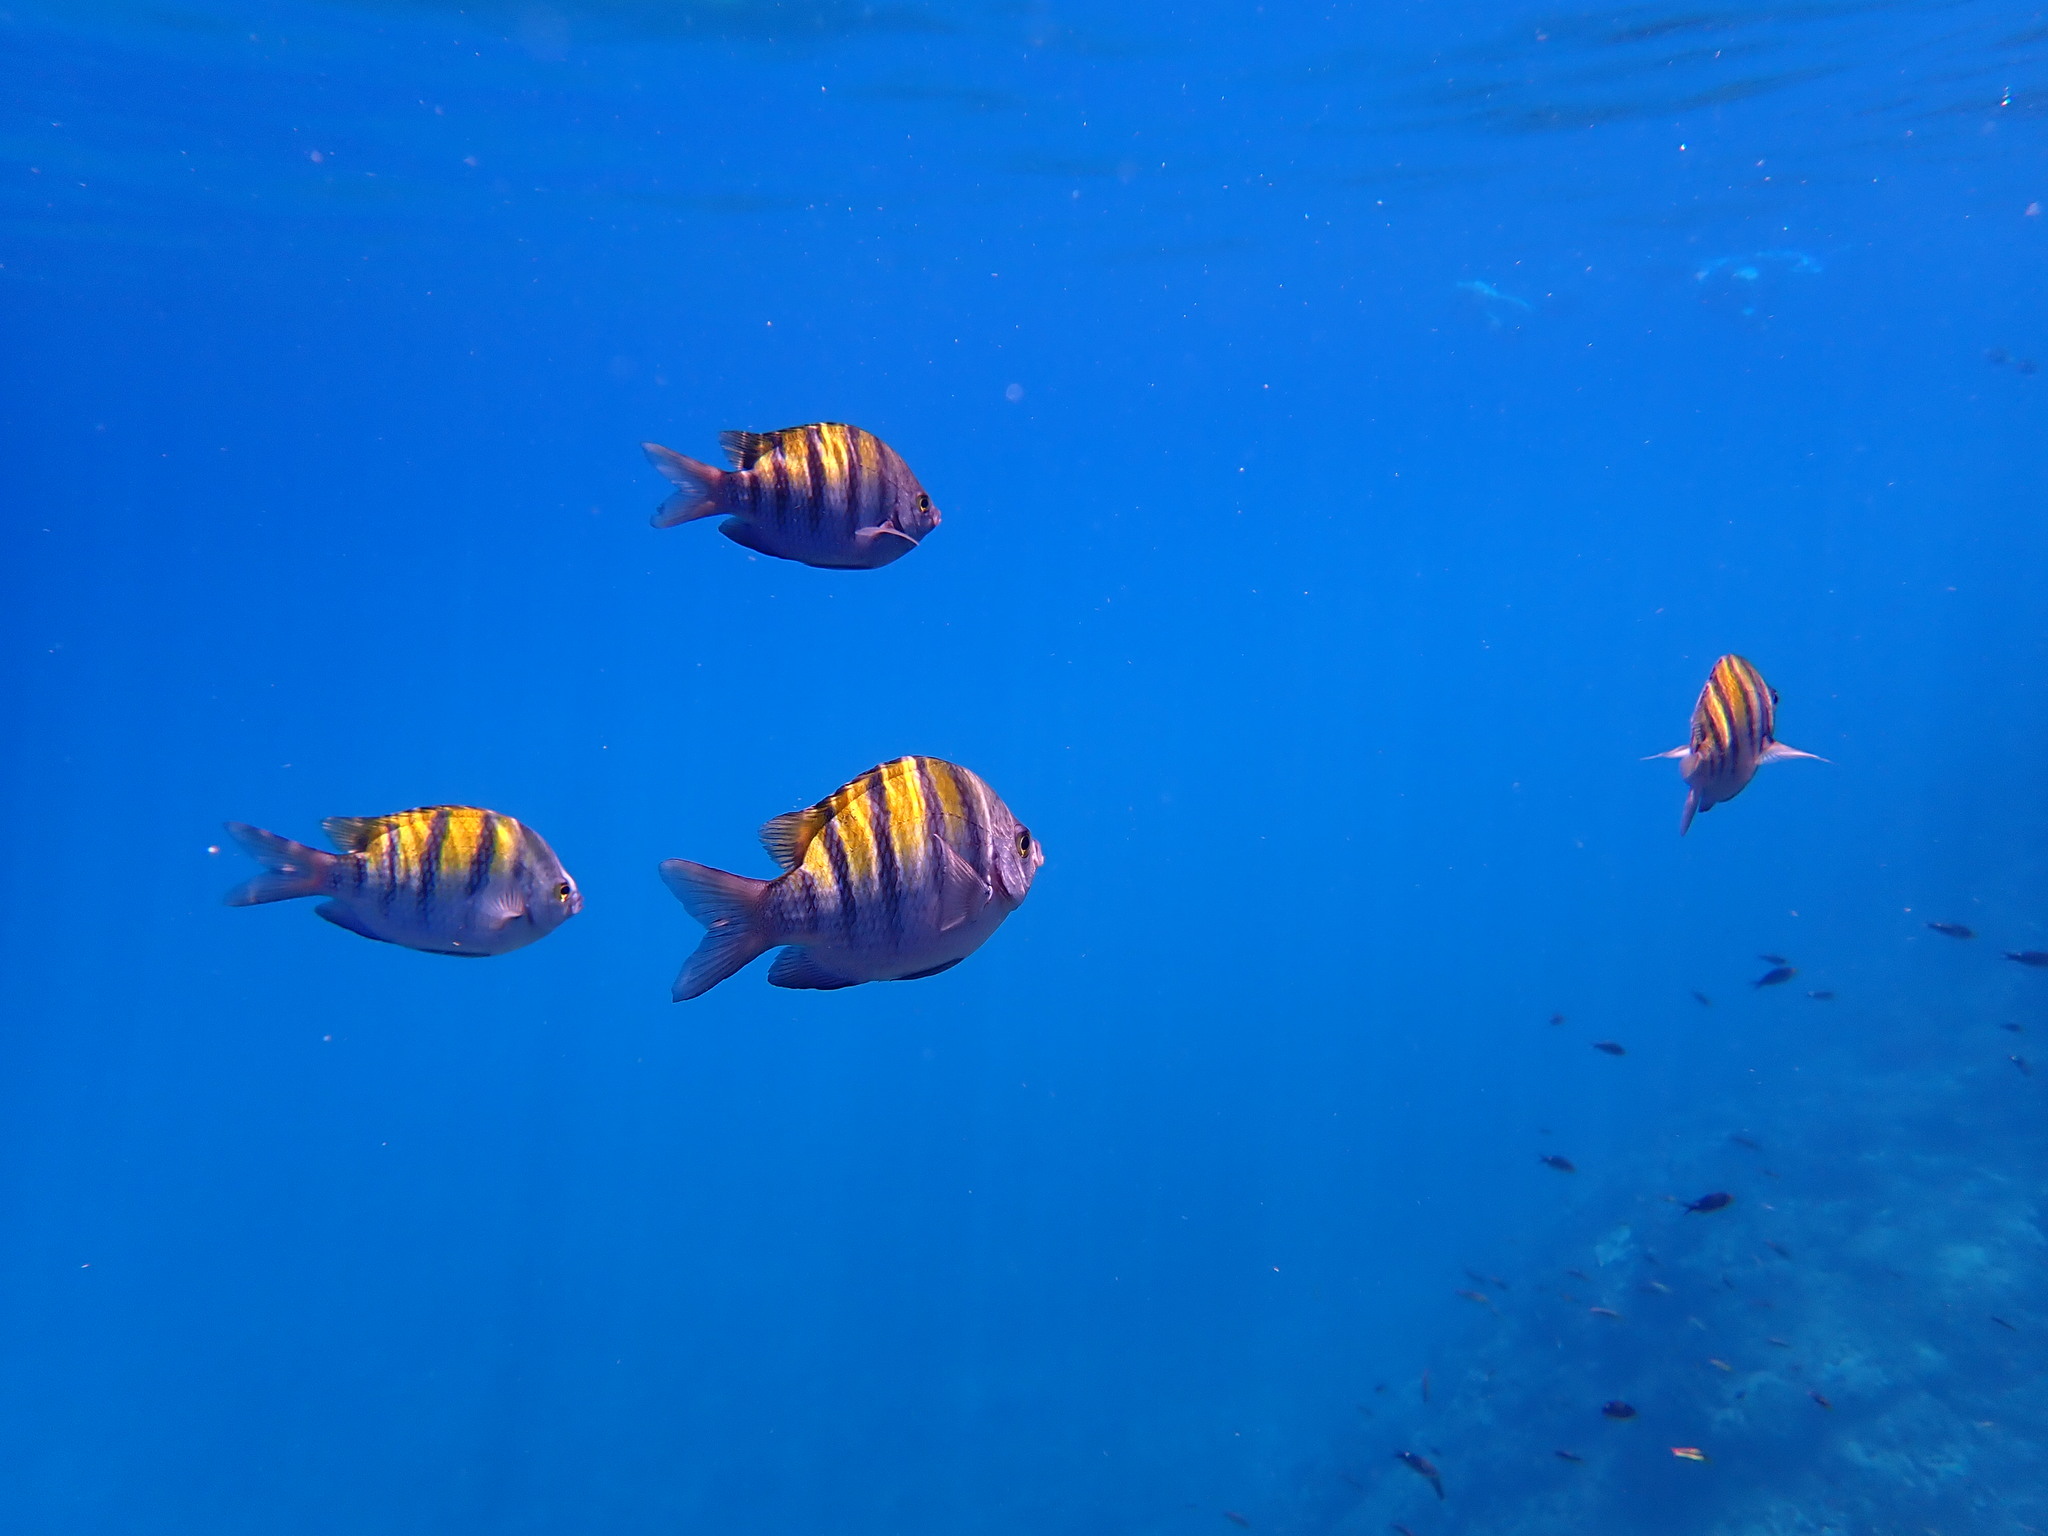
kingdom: Animalia
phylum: Chordata
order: Perciformes
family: Pomacentridae
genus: Abudefduf
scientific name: Abudefduf troschelii
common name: Panamic sergeant major
